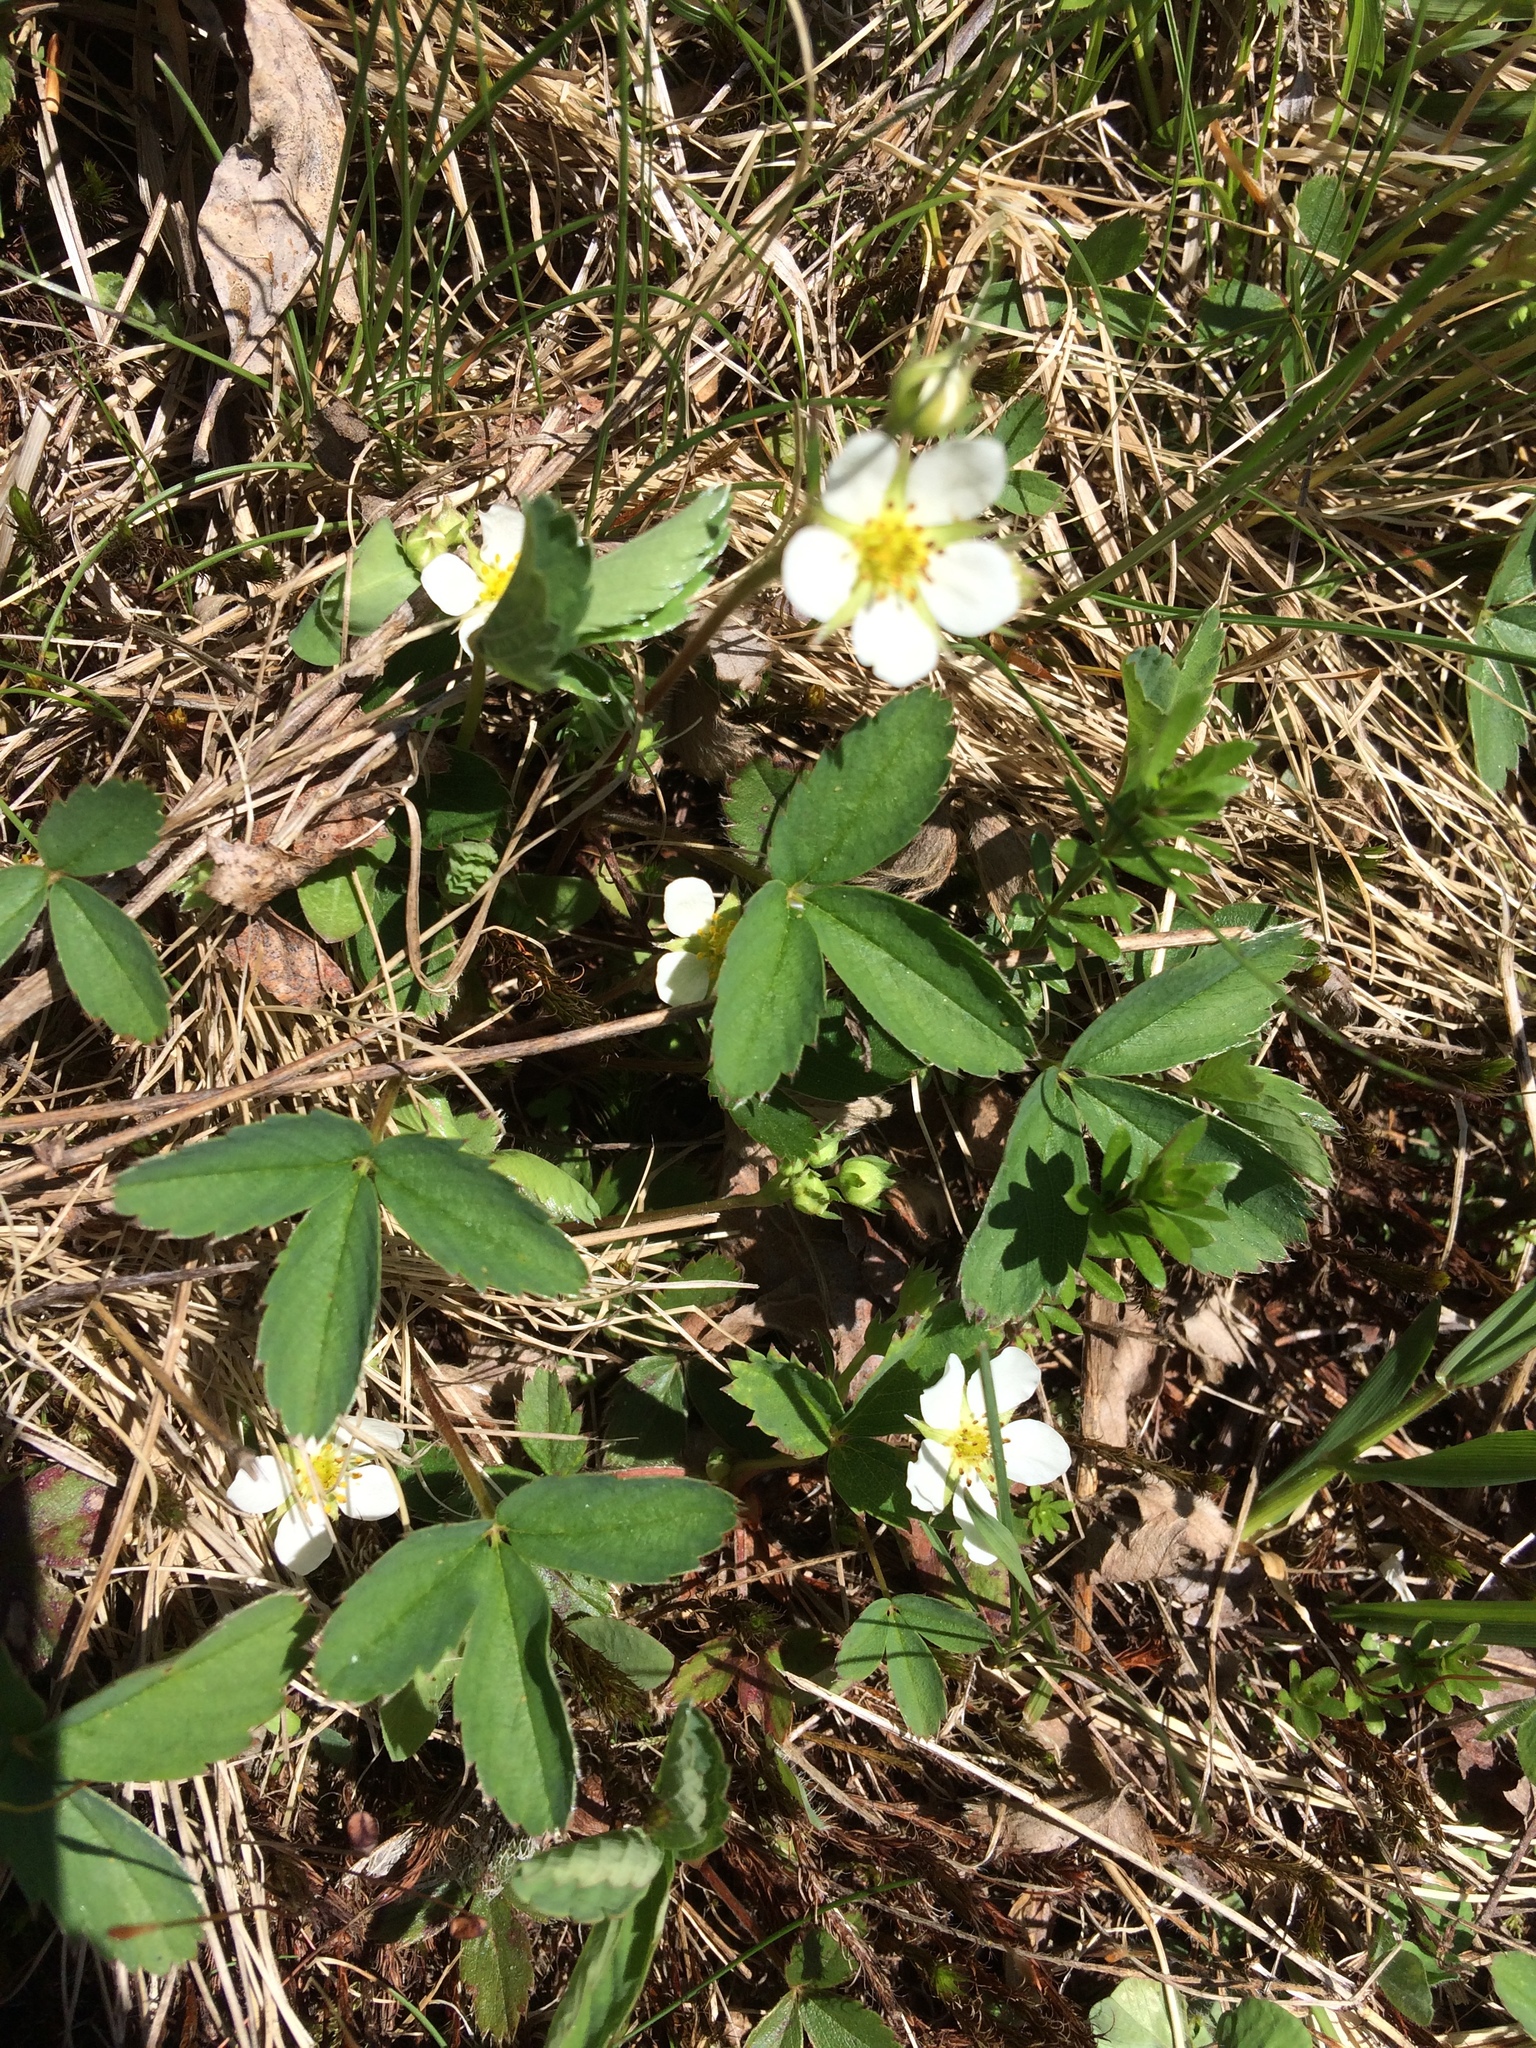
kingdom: Plantae
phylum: Tracheophyta
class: Magnoliopsida
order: Rosales
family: Rosaceae
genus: Fragaria
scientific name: Fragaria virginiana
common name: Thickleaved wild strawberry
